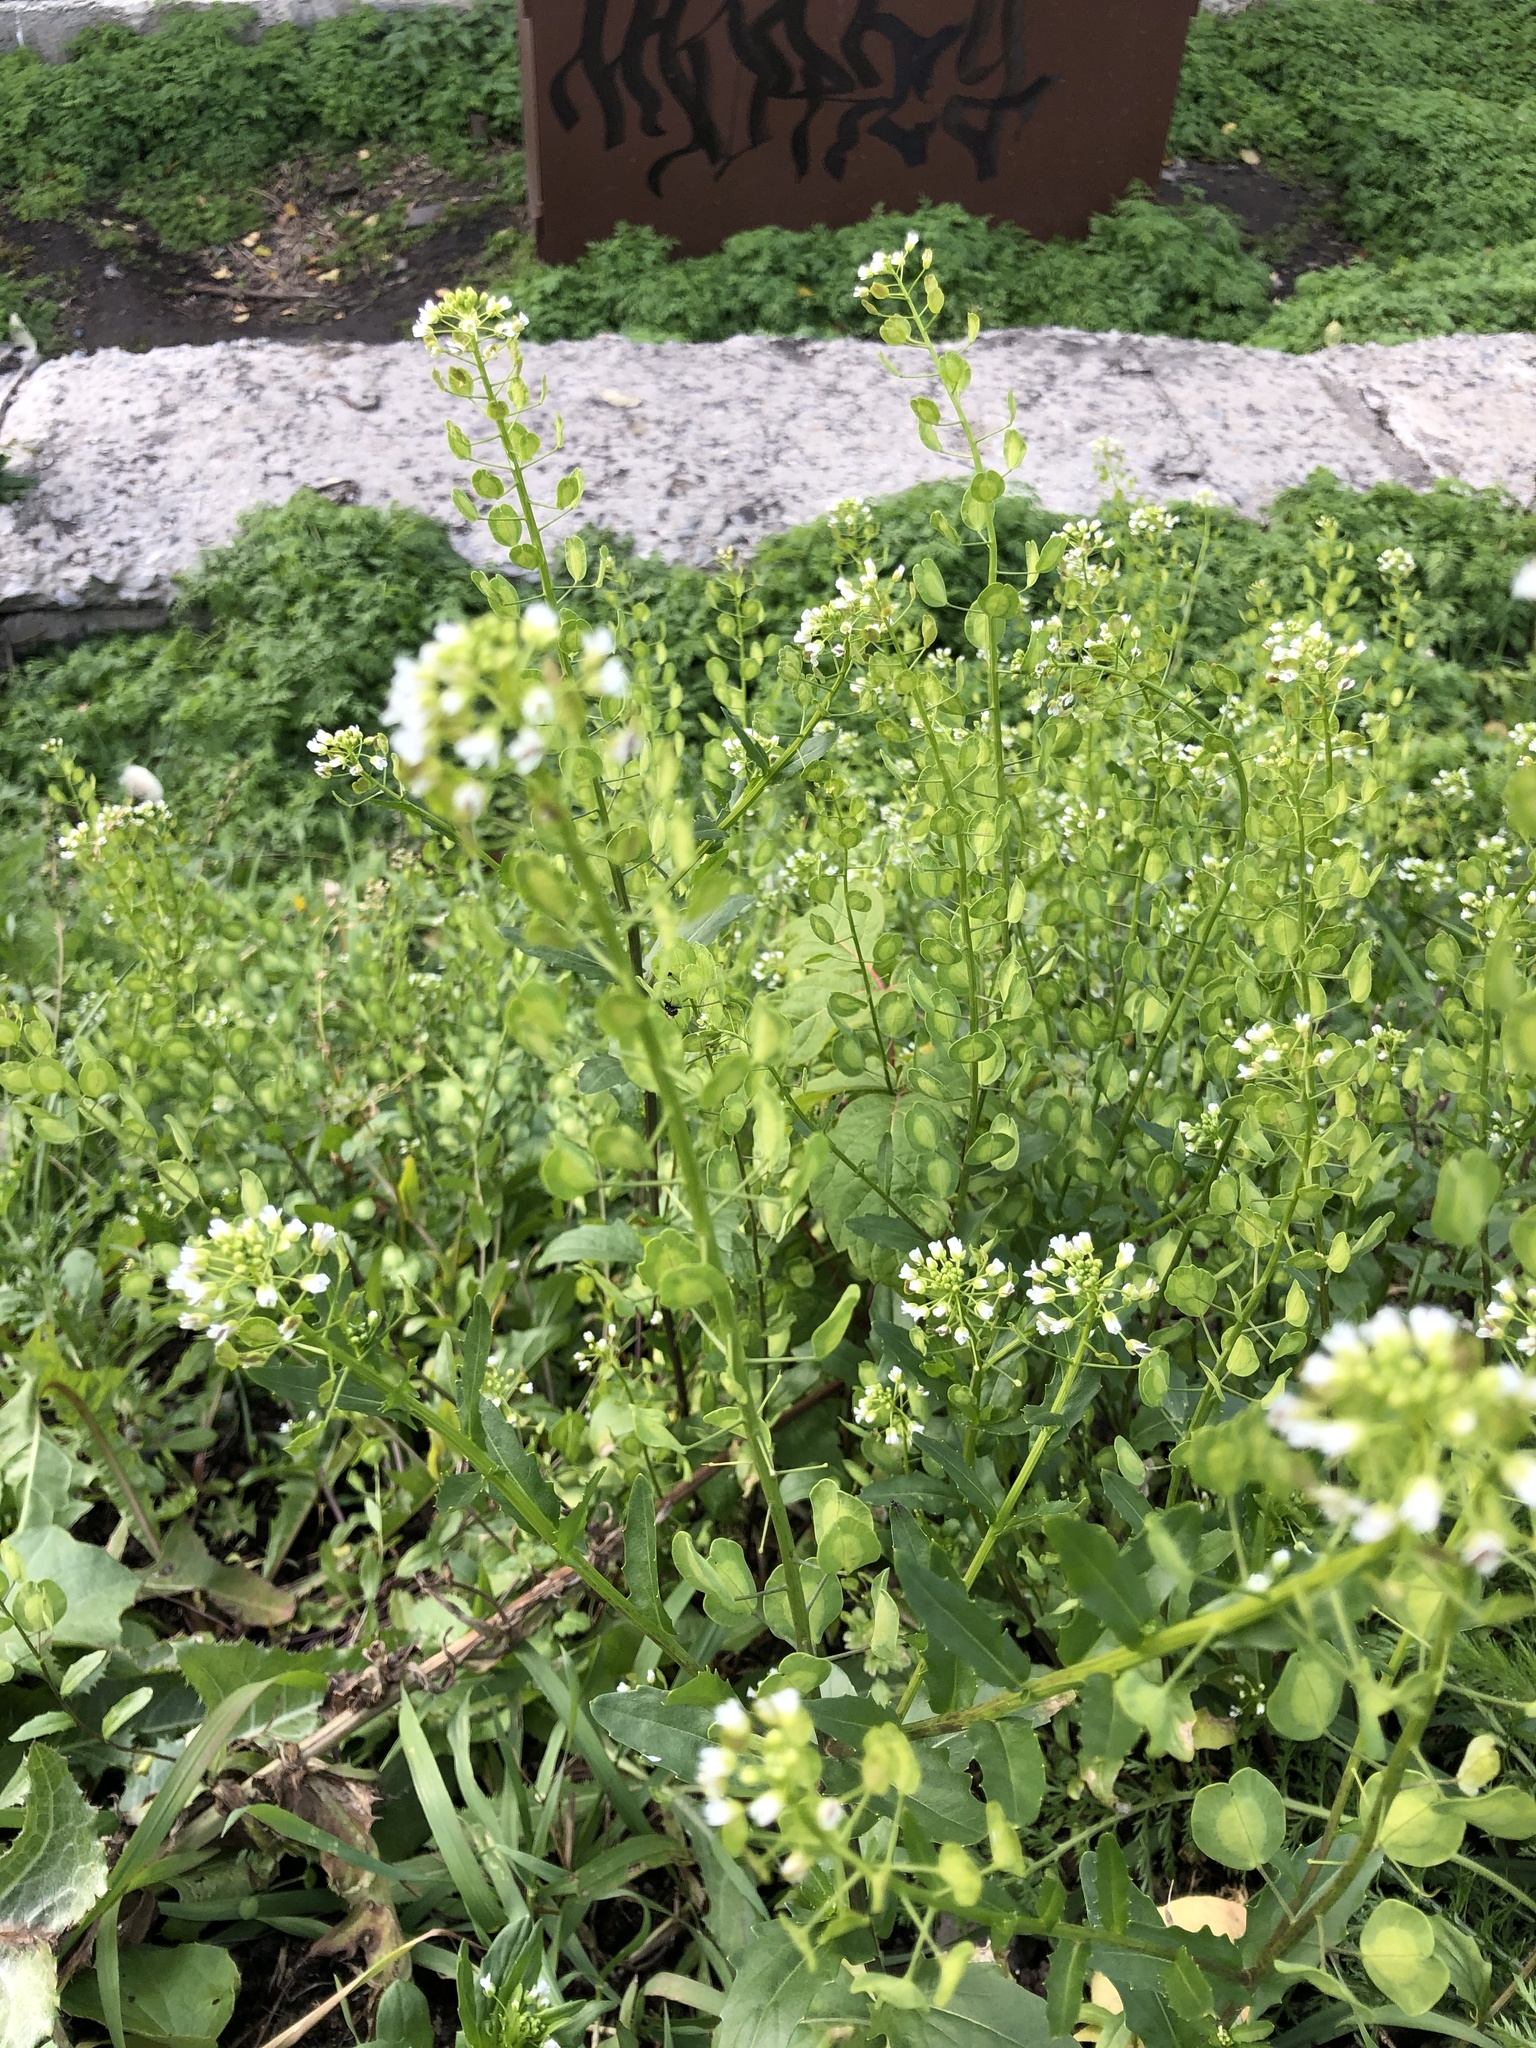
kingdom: Plantae
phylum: Tracheophyta
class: Magnoliopsida
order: Brassicales
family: Brassicaceae
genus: Thlaspi
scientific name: Thlaspi arvense
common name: Field pennycress
